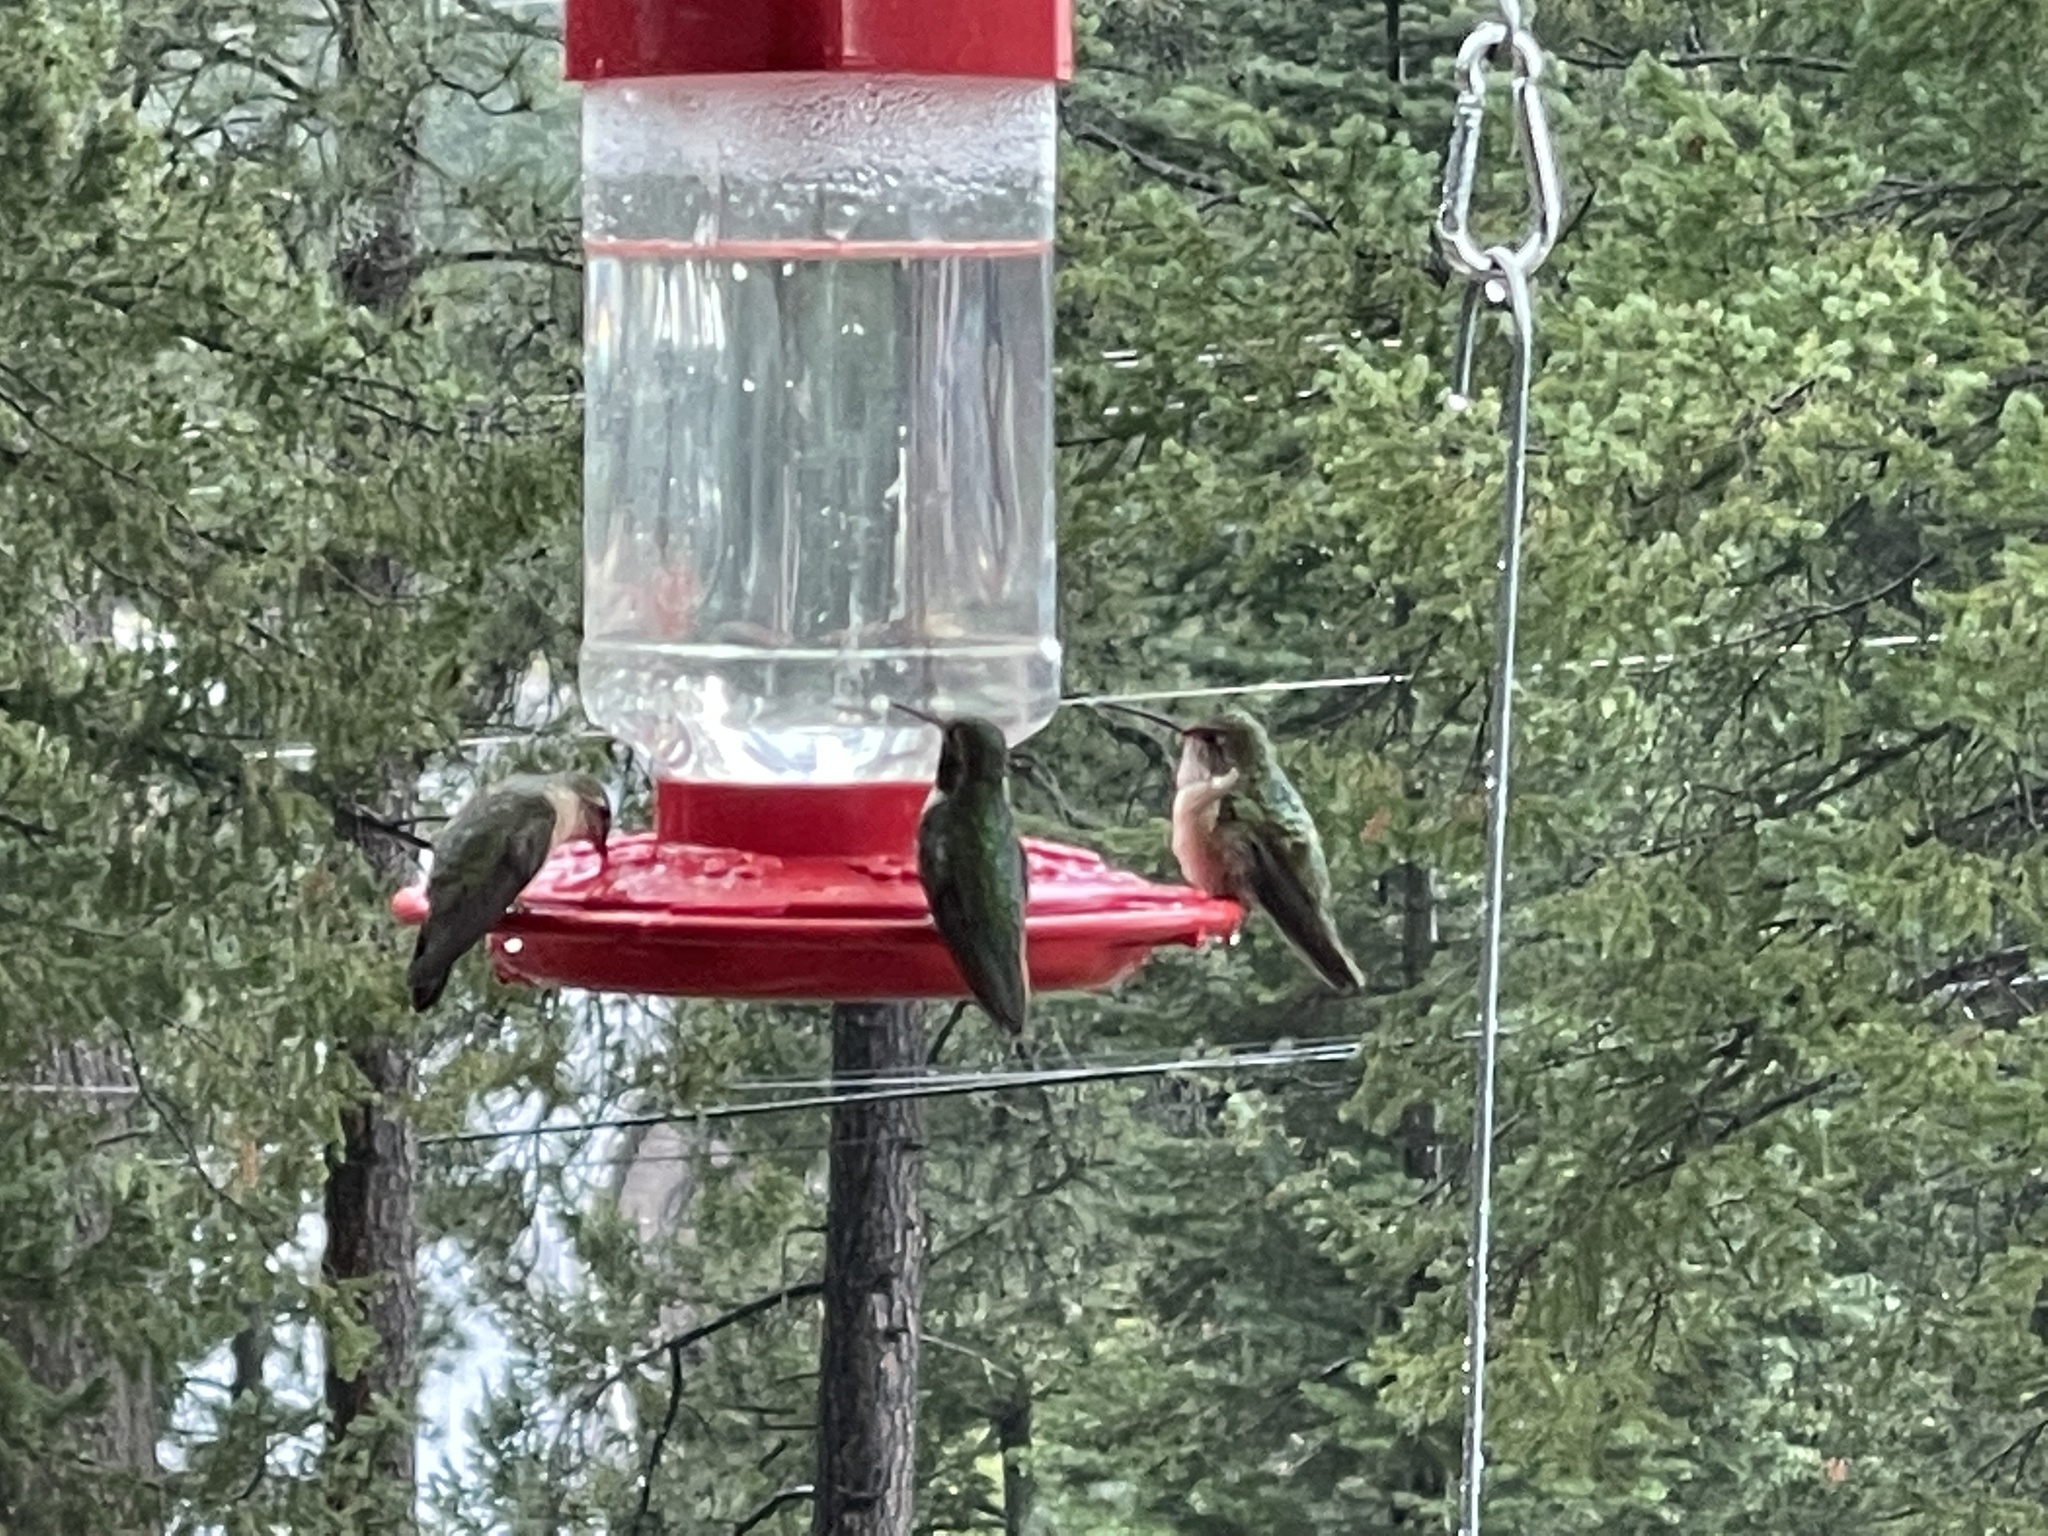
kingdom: Animalia
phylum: Chordata
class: Aves
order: Apodiformes
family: Trochilidae
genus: Selasphorus
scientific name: Selasphorus platycercus
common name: Broad-tailed hummingbird
